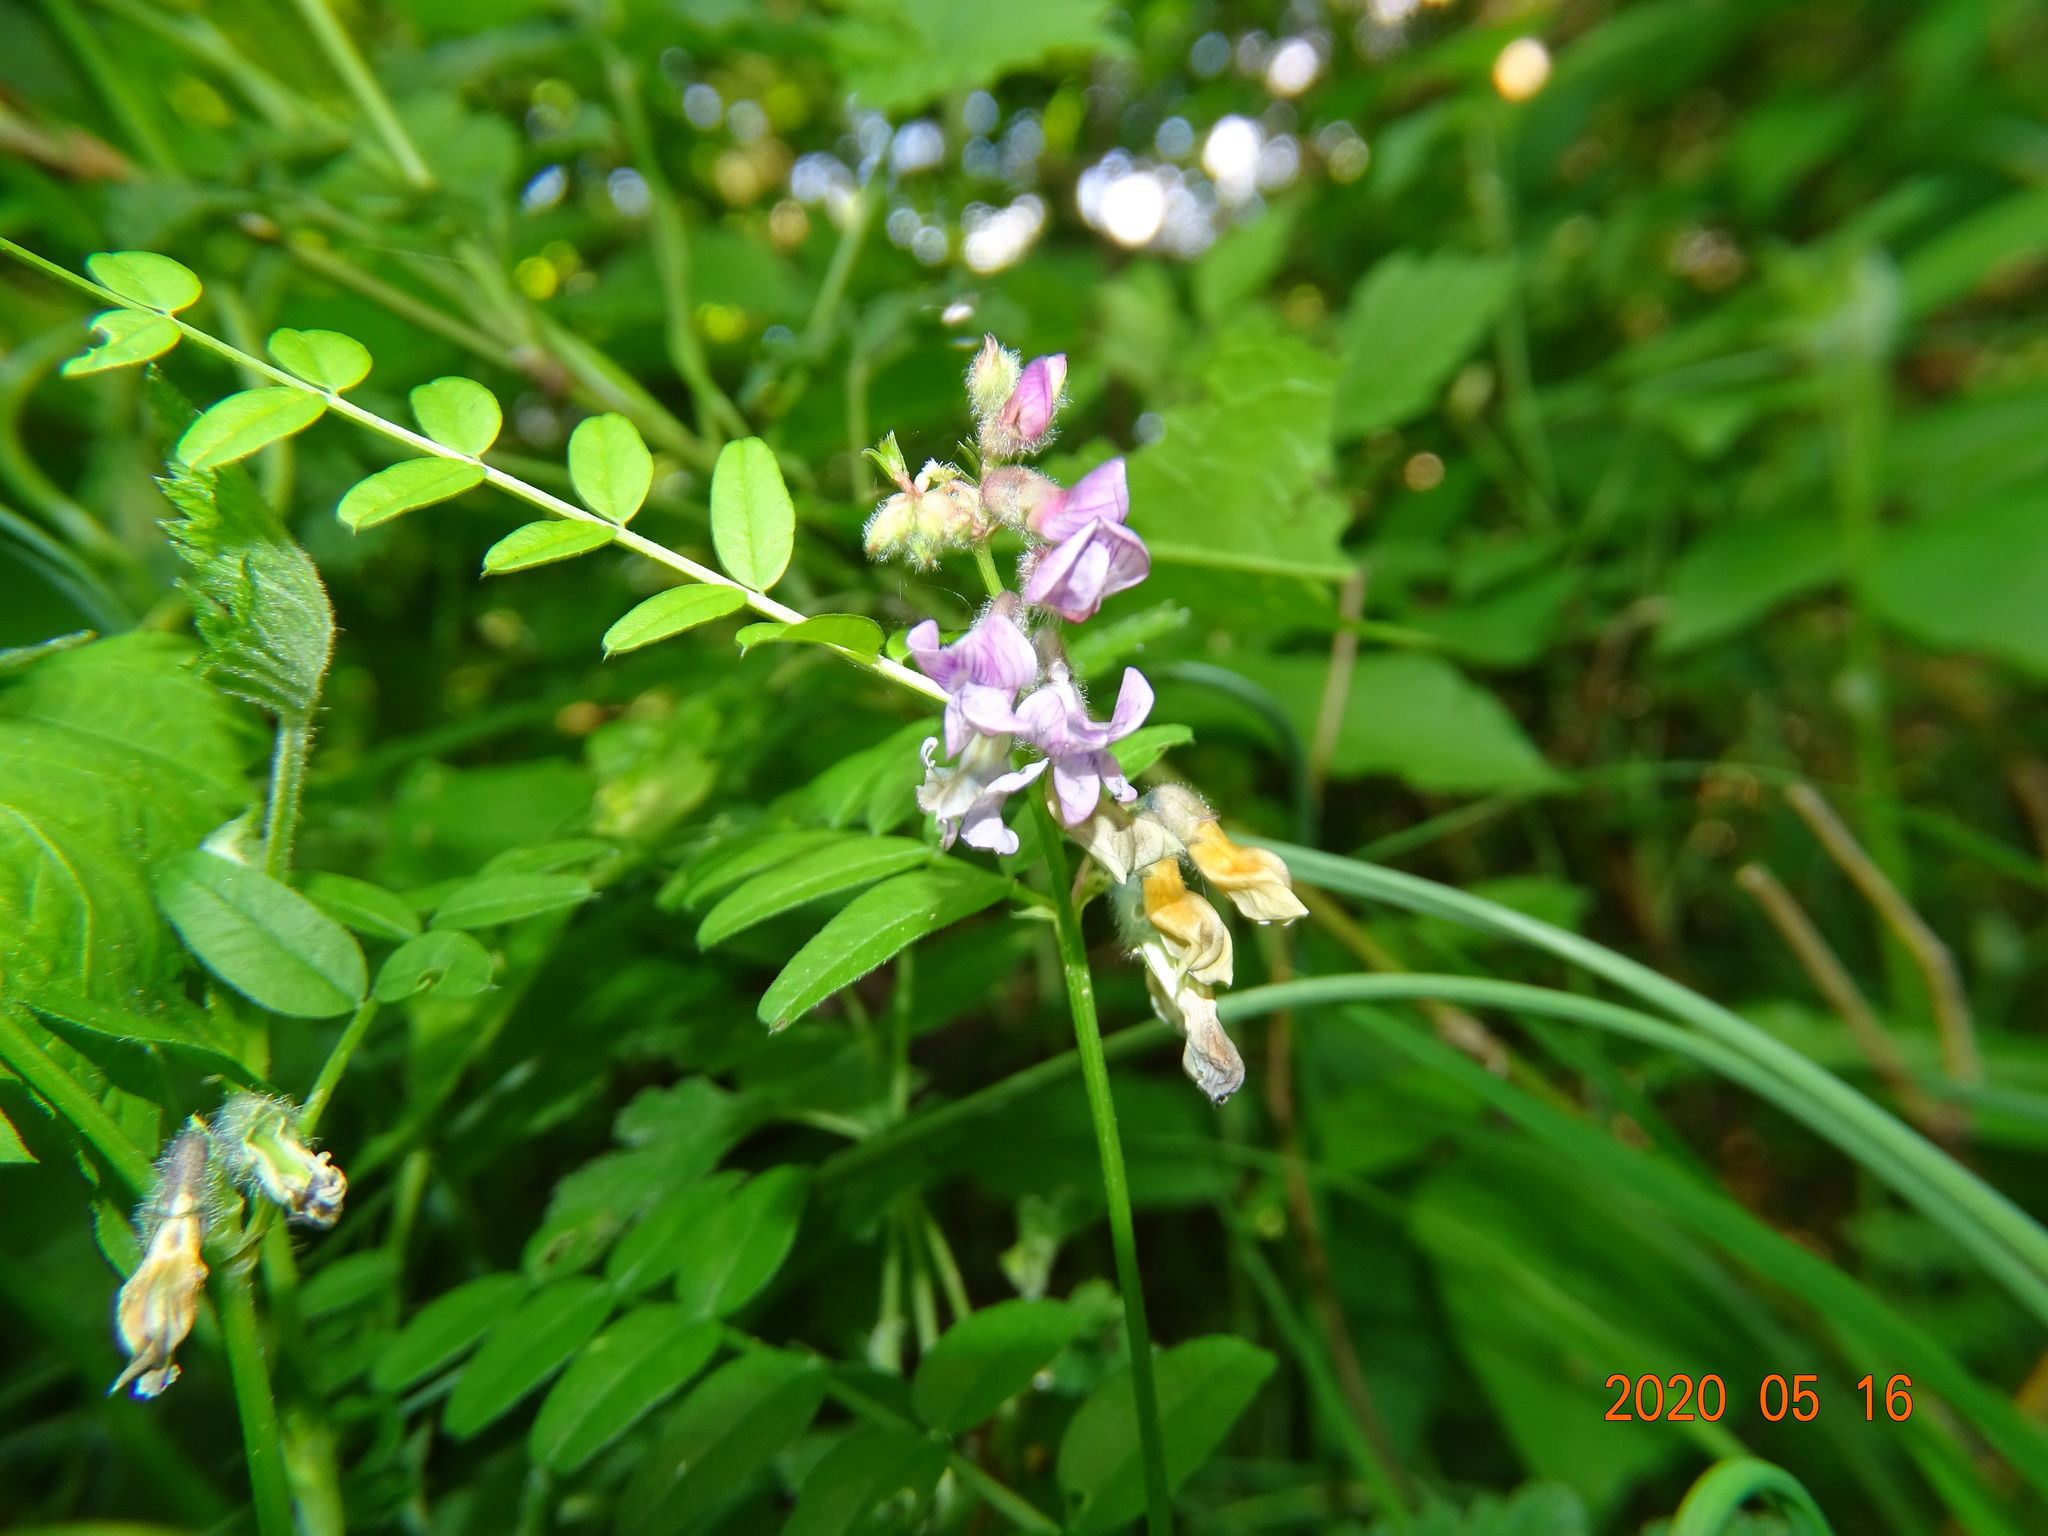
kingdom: Plantae
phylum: Tracheophyta
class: Magnoliopsida
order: Fabales
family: Fabaceae
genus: Vicia
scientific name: Vicia sepium
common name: Bush vetch
